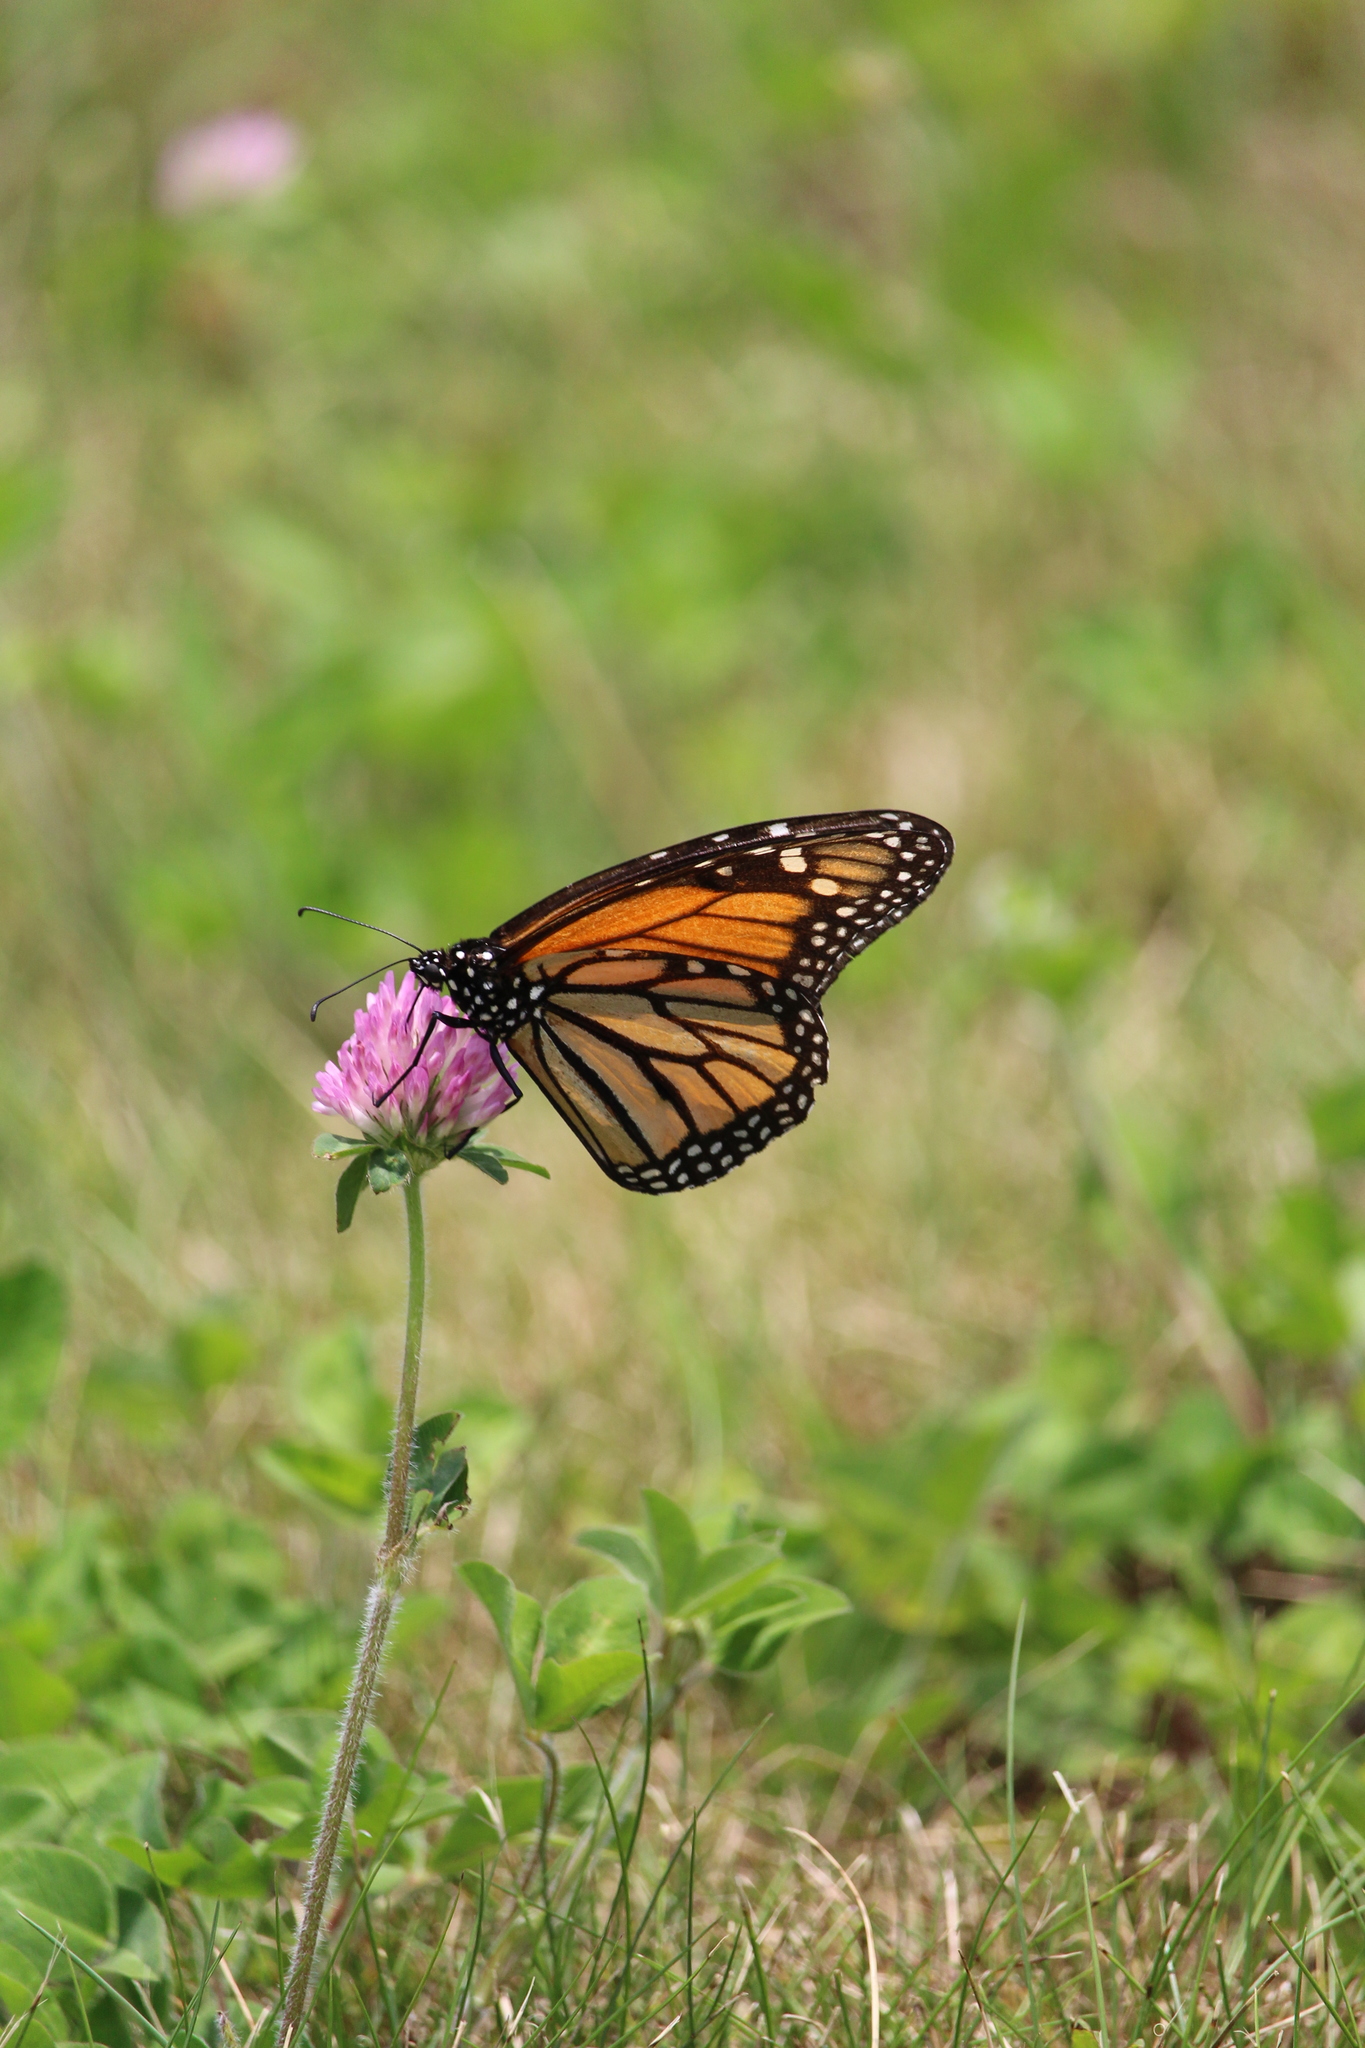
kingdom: Animalia
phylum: Arthropoda
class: Insecta
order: Lepidoptera
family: Nymphalidae
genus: Danaus
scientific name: Danaus plexippus
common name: Monarch
